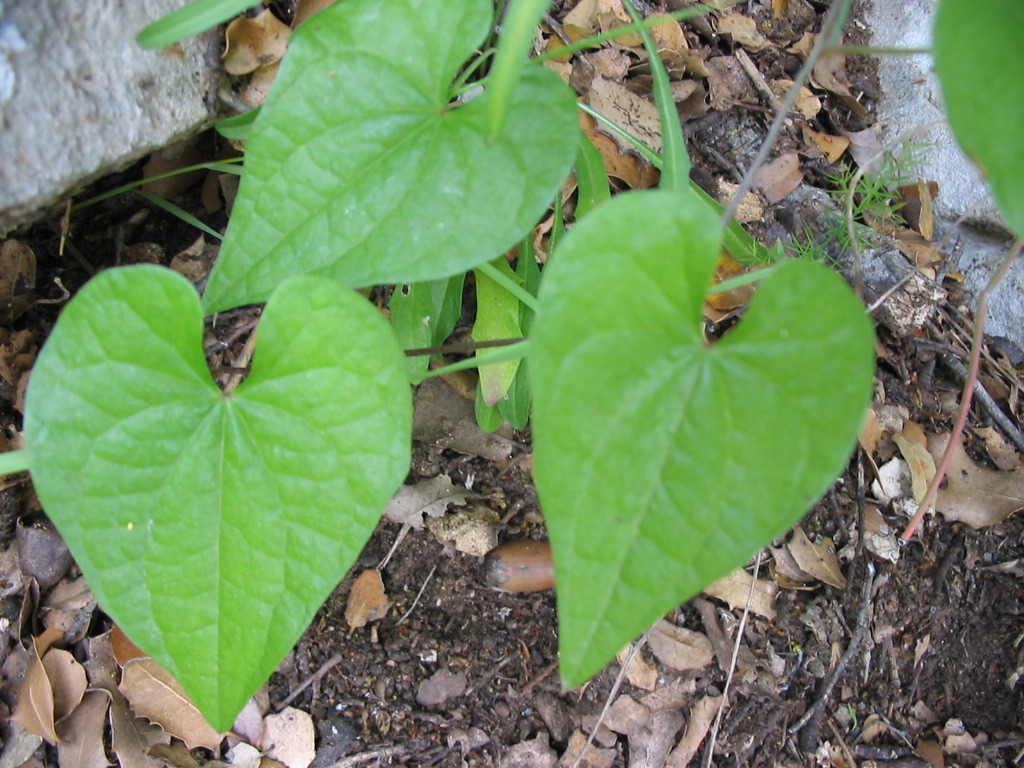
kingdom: Plantae
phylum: Tracheophyta
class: Liliopsida
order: Dioscoreales
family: Dioscoreaceae
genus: Dioscorea
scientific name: Dioscorea communis
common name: Black-bindweed
